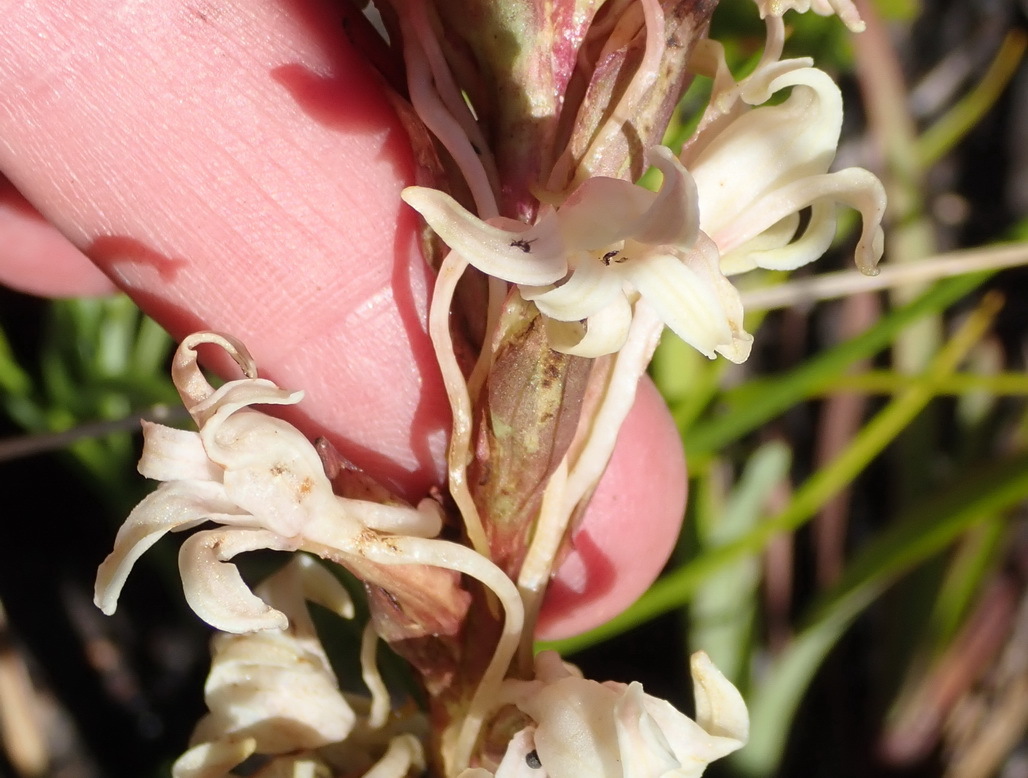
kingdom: Plantae
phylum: Tracheophyta
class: Liliopsida
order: Asparagales
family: Orchidaceae
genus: Satyrium
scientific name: Satyrium stenopetalum
